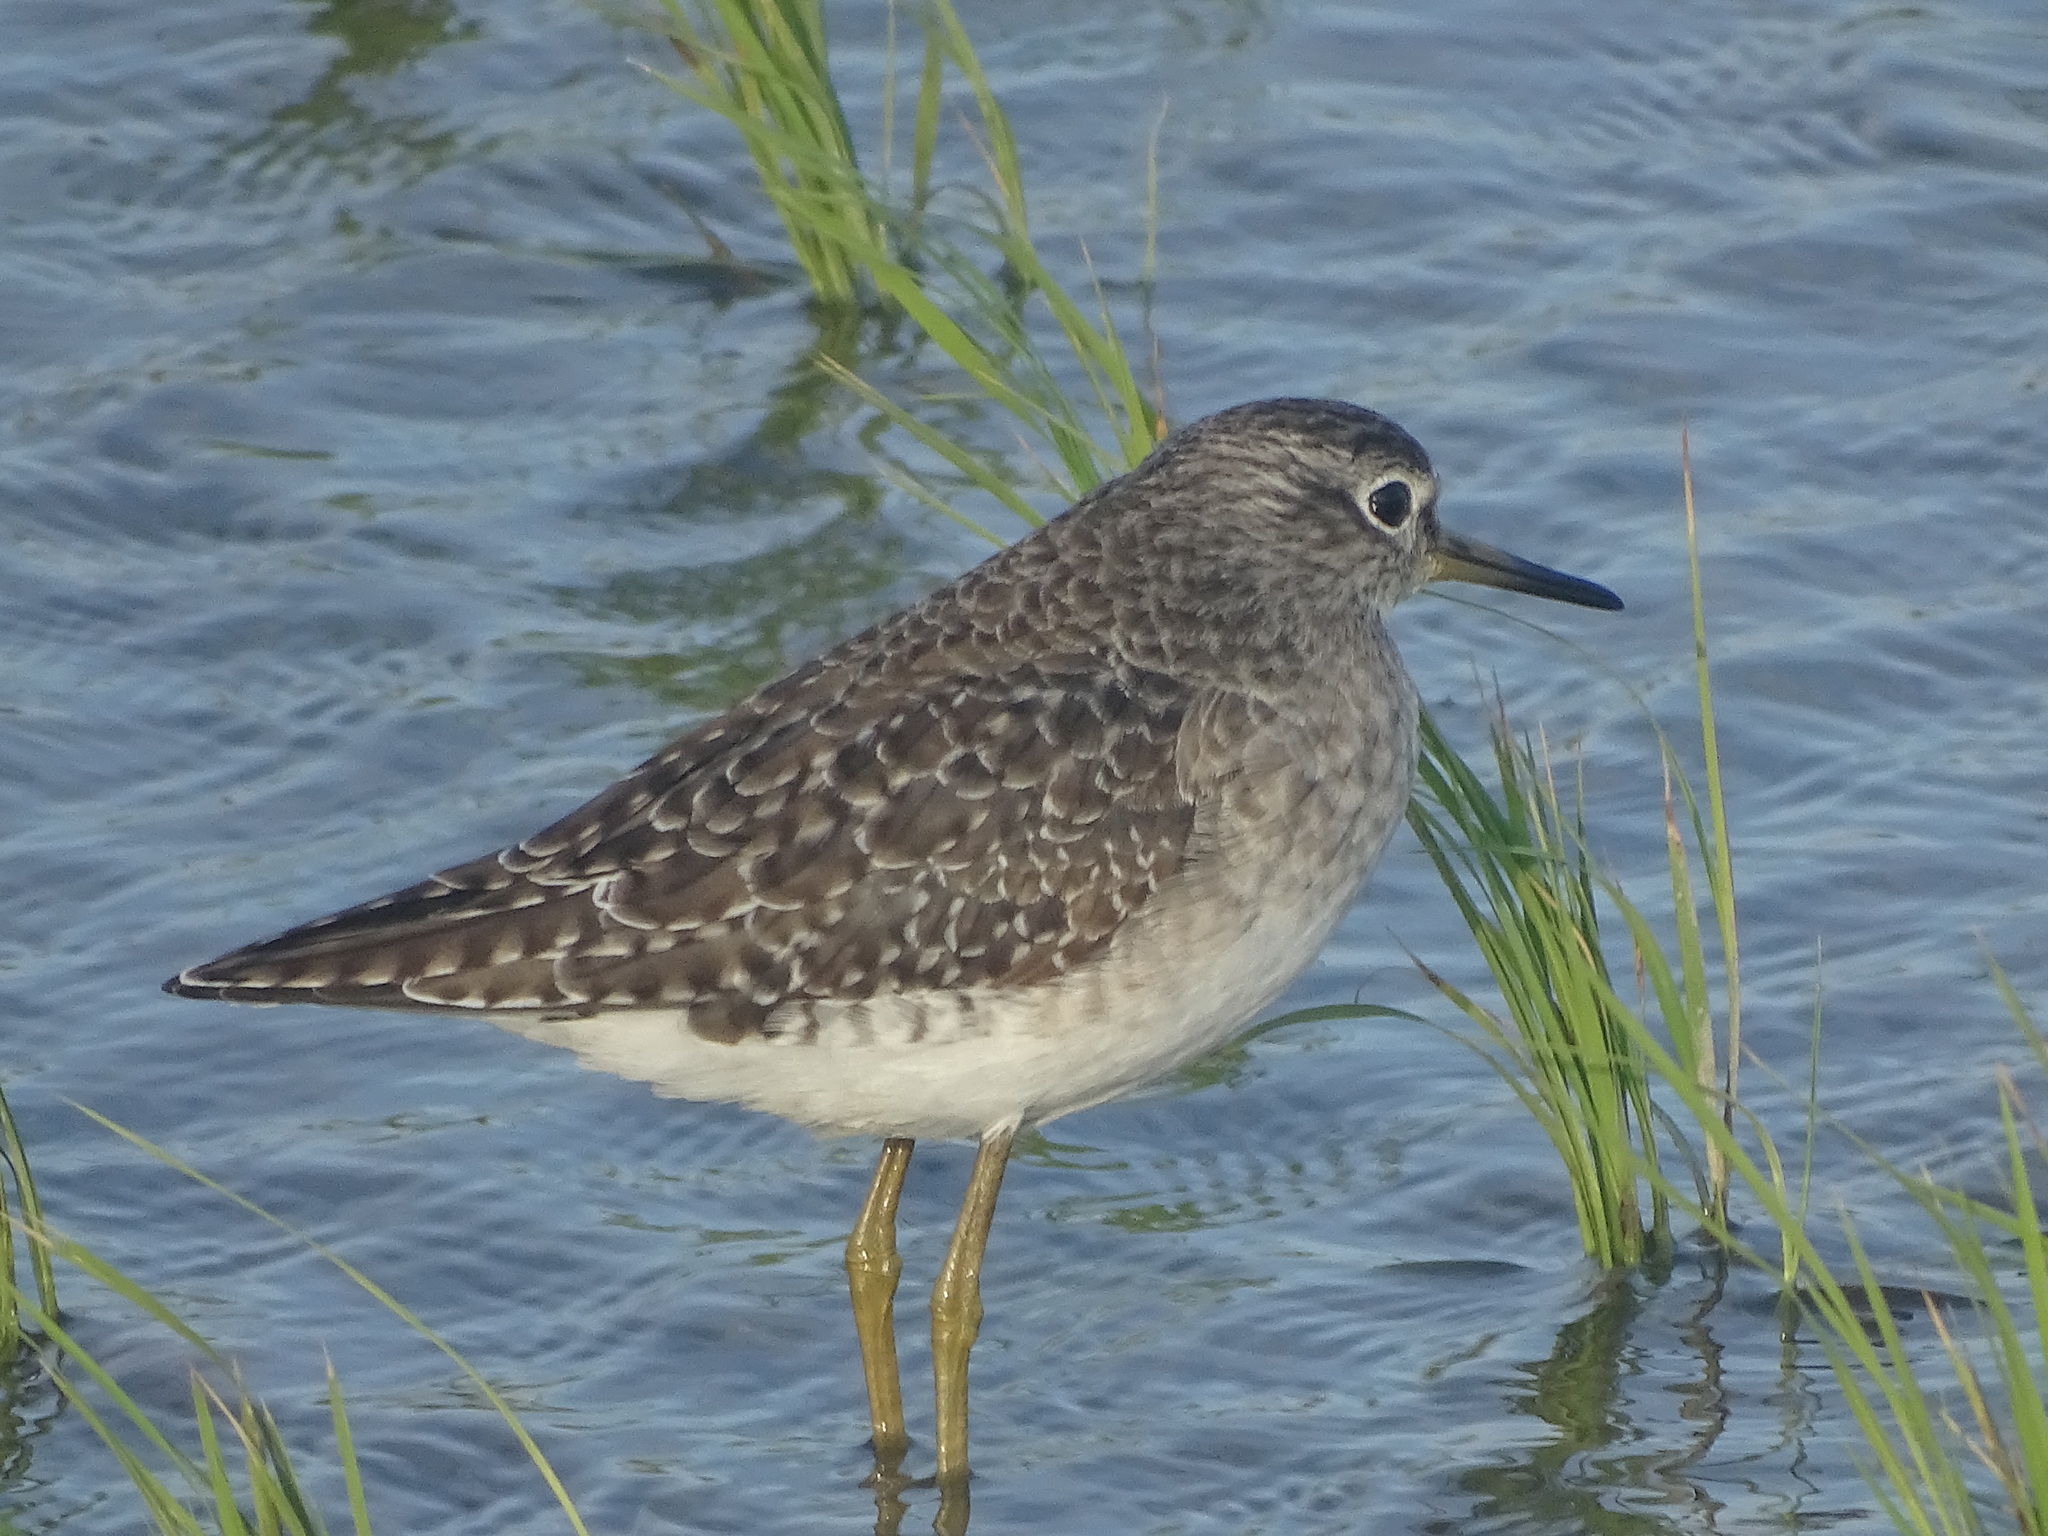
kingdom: Animalia
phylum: Chordata
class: Aves
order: Charadriiformes
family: Scolopacidae
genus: Tringa
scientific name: Tringa glareola
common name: Wood sandpiper
